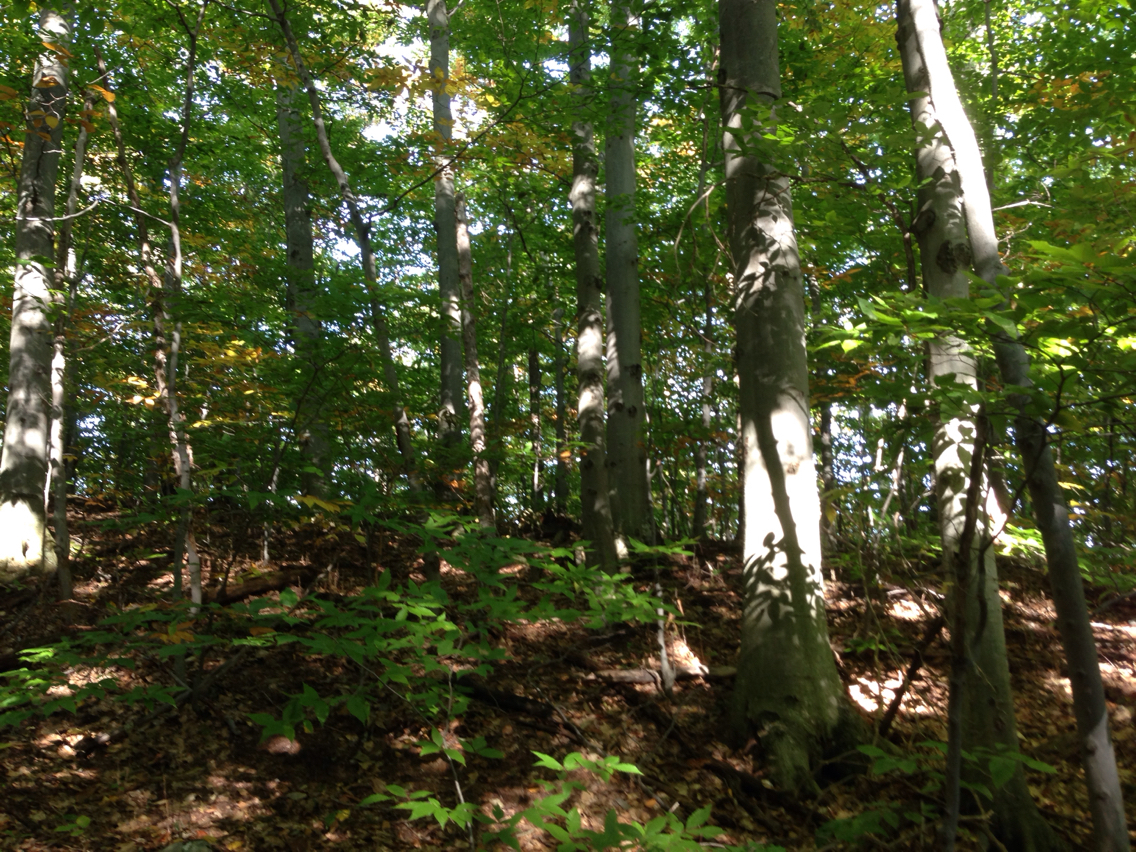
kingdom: Plantae
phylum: Tracheophyta
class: Magnoliopsida
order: Fagales
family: Fagaceae
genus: Fagus
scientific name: Fagus grandifolia
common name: American beech
